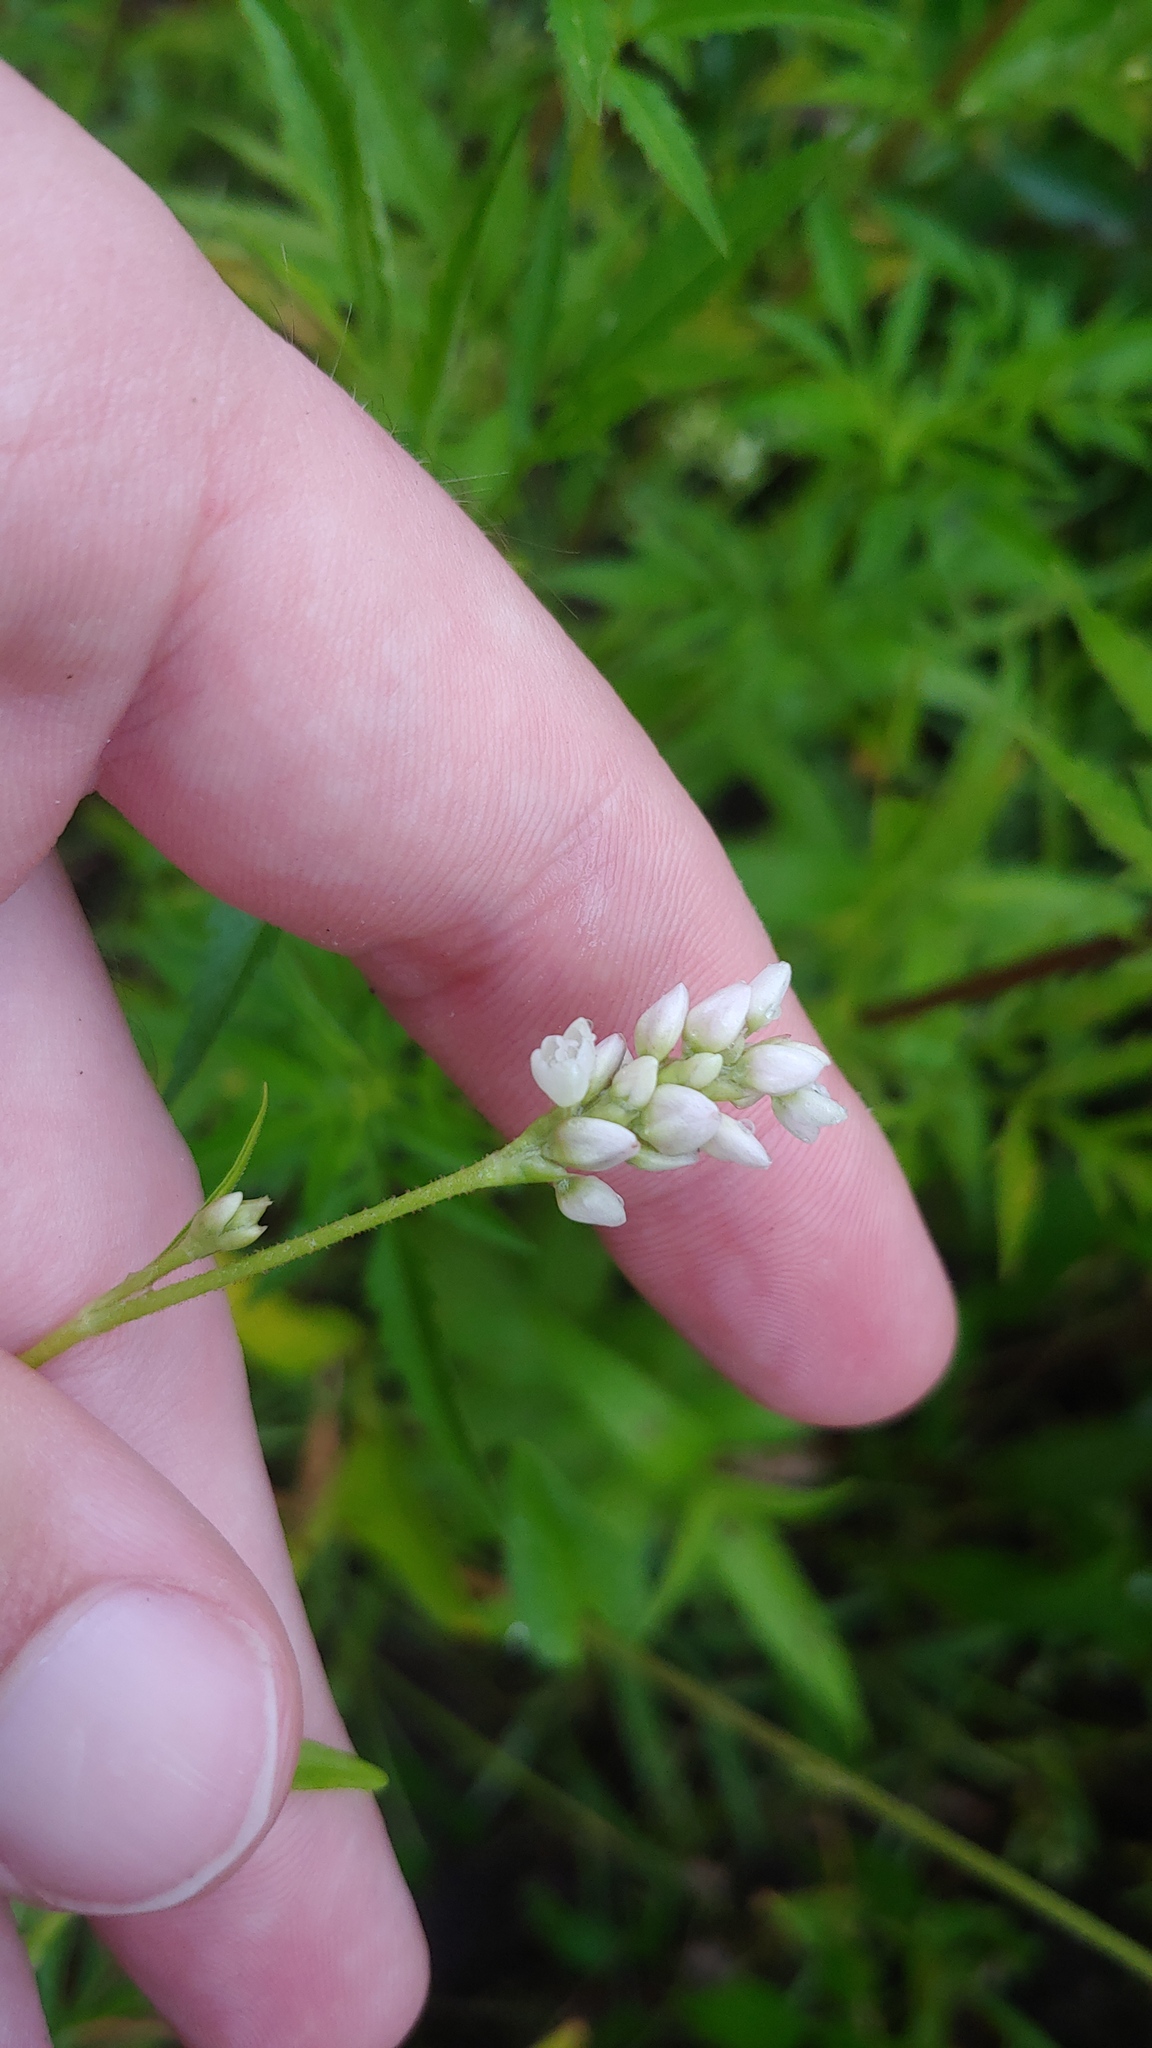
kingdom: Plantae
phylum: Tracheophyta
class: Magnoliopsida
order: Caryophyllales
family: Polygonaceae
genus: Persicaria
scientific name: Persicaria pensylvanica
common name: Pinkweed
